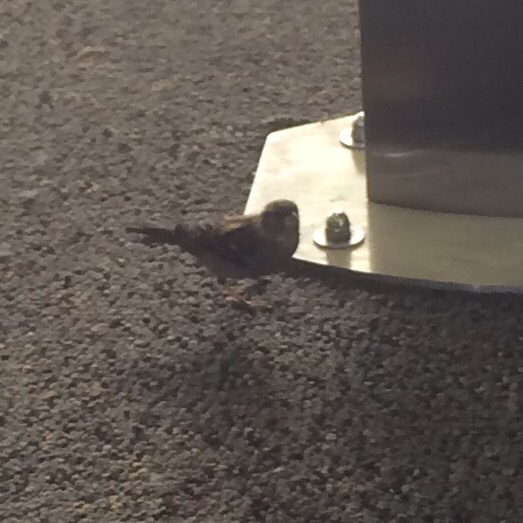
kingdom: Animalia
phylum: Chordata
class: Aves
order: Passeriformes
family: Passeridae
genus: Passer
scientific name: Passer domesticus
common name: House sparrow
